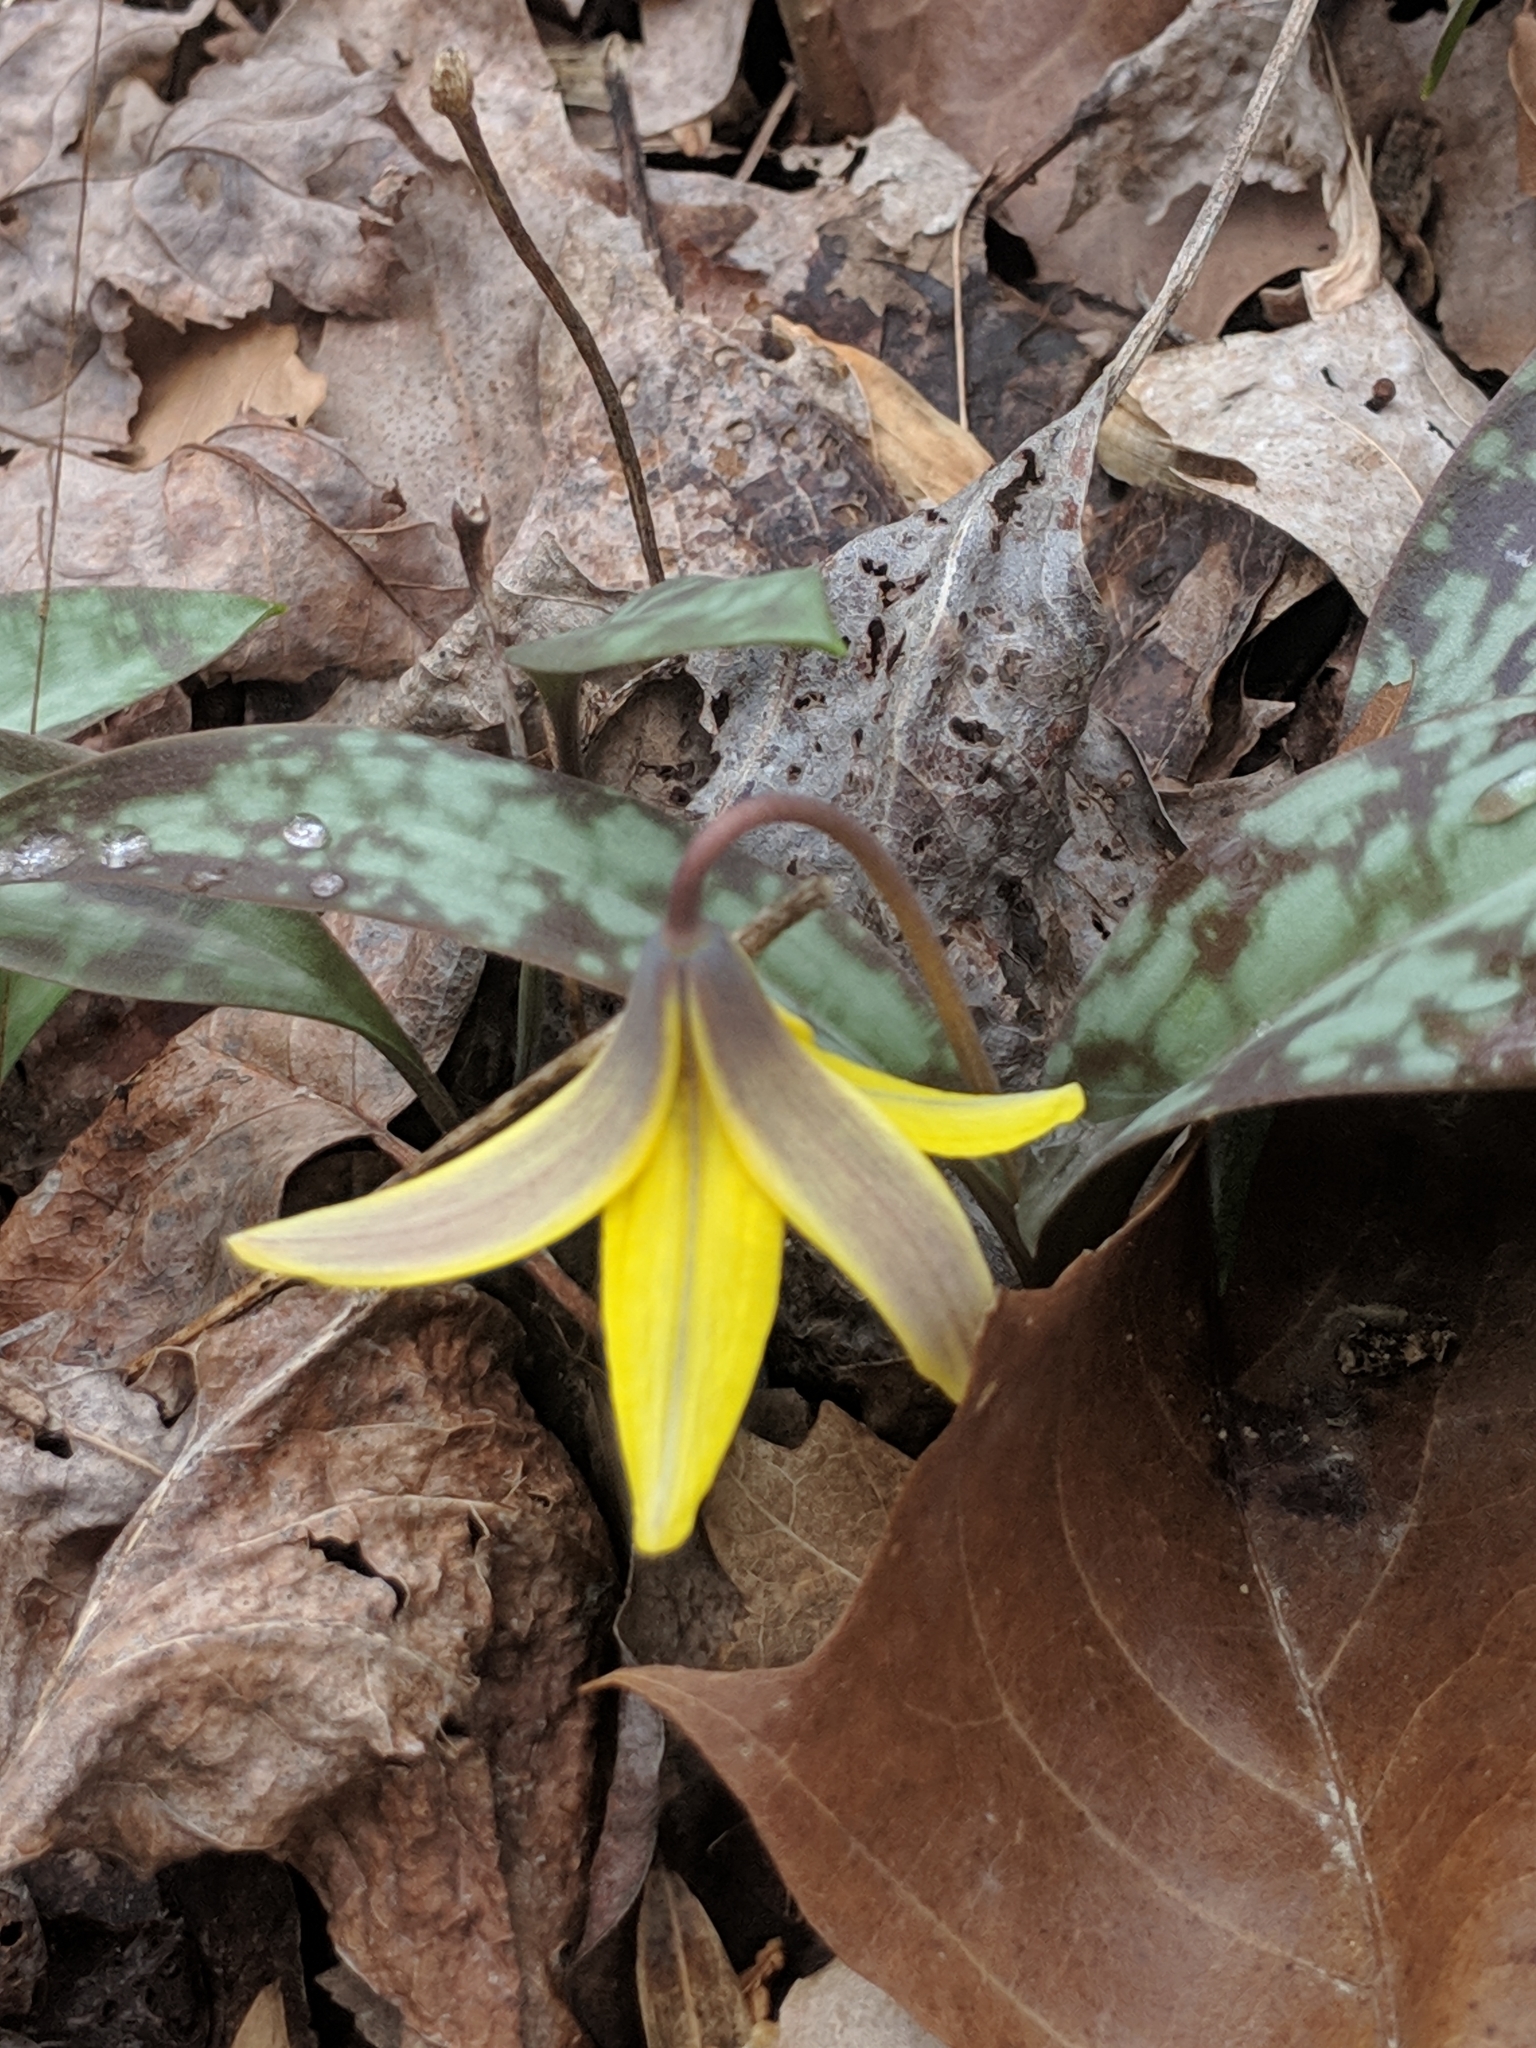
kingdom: Plantae
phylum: Tracheophyta
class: Liliopsida
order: Liliales
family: Liliaceae
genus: Erythronium
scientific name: Erythronium americanum
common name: Yellow adder's-tongue
